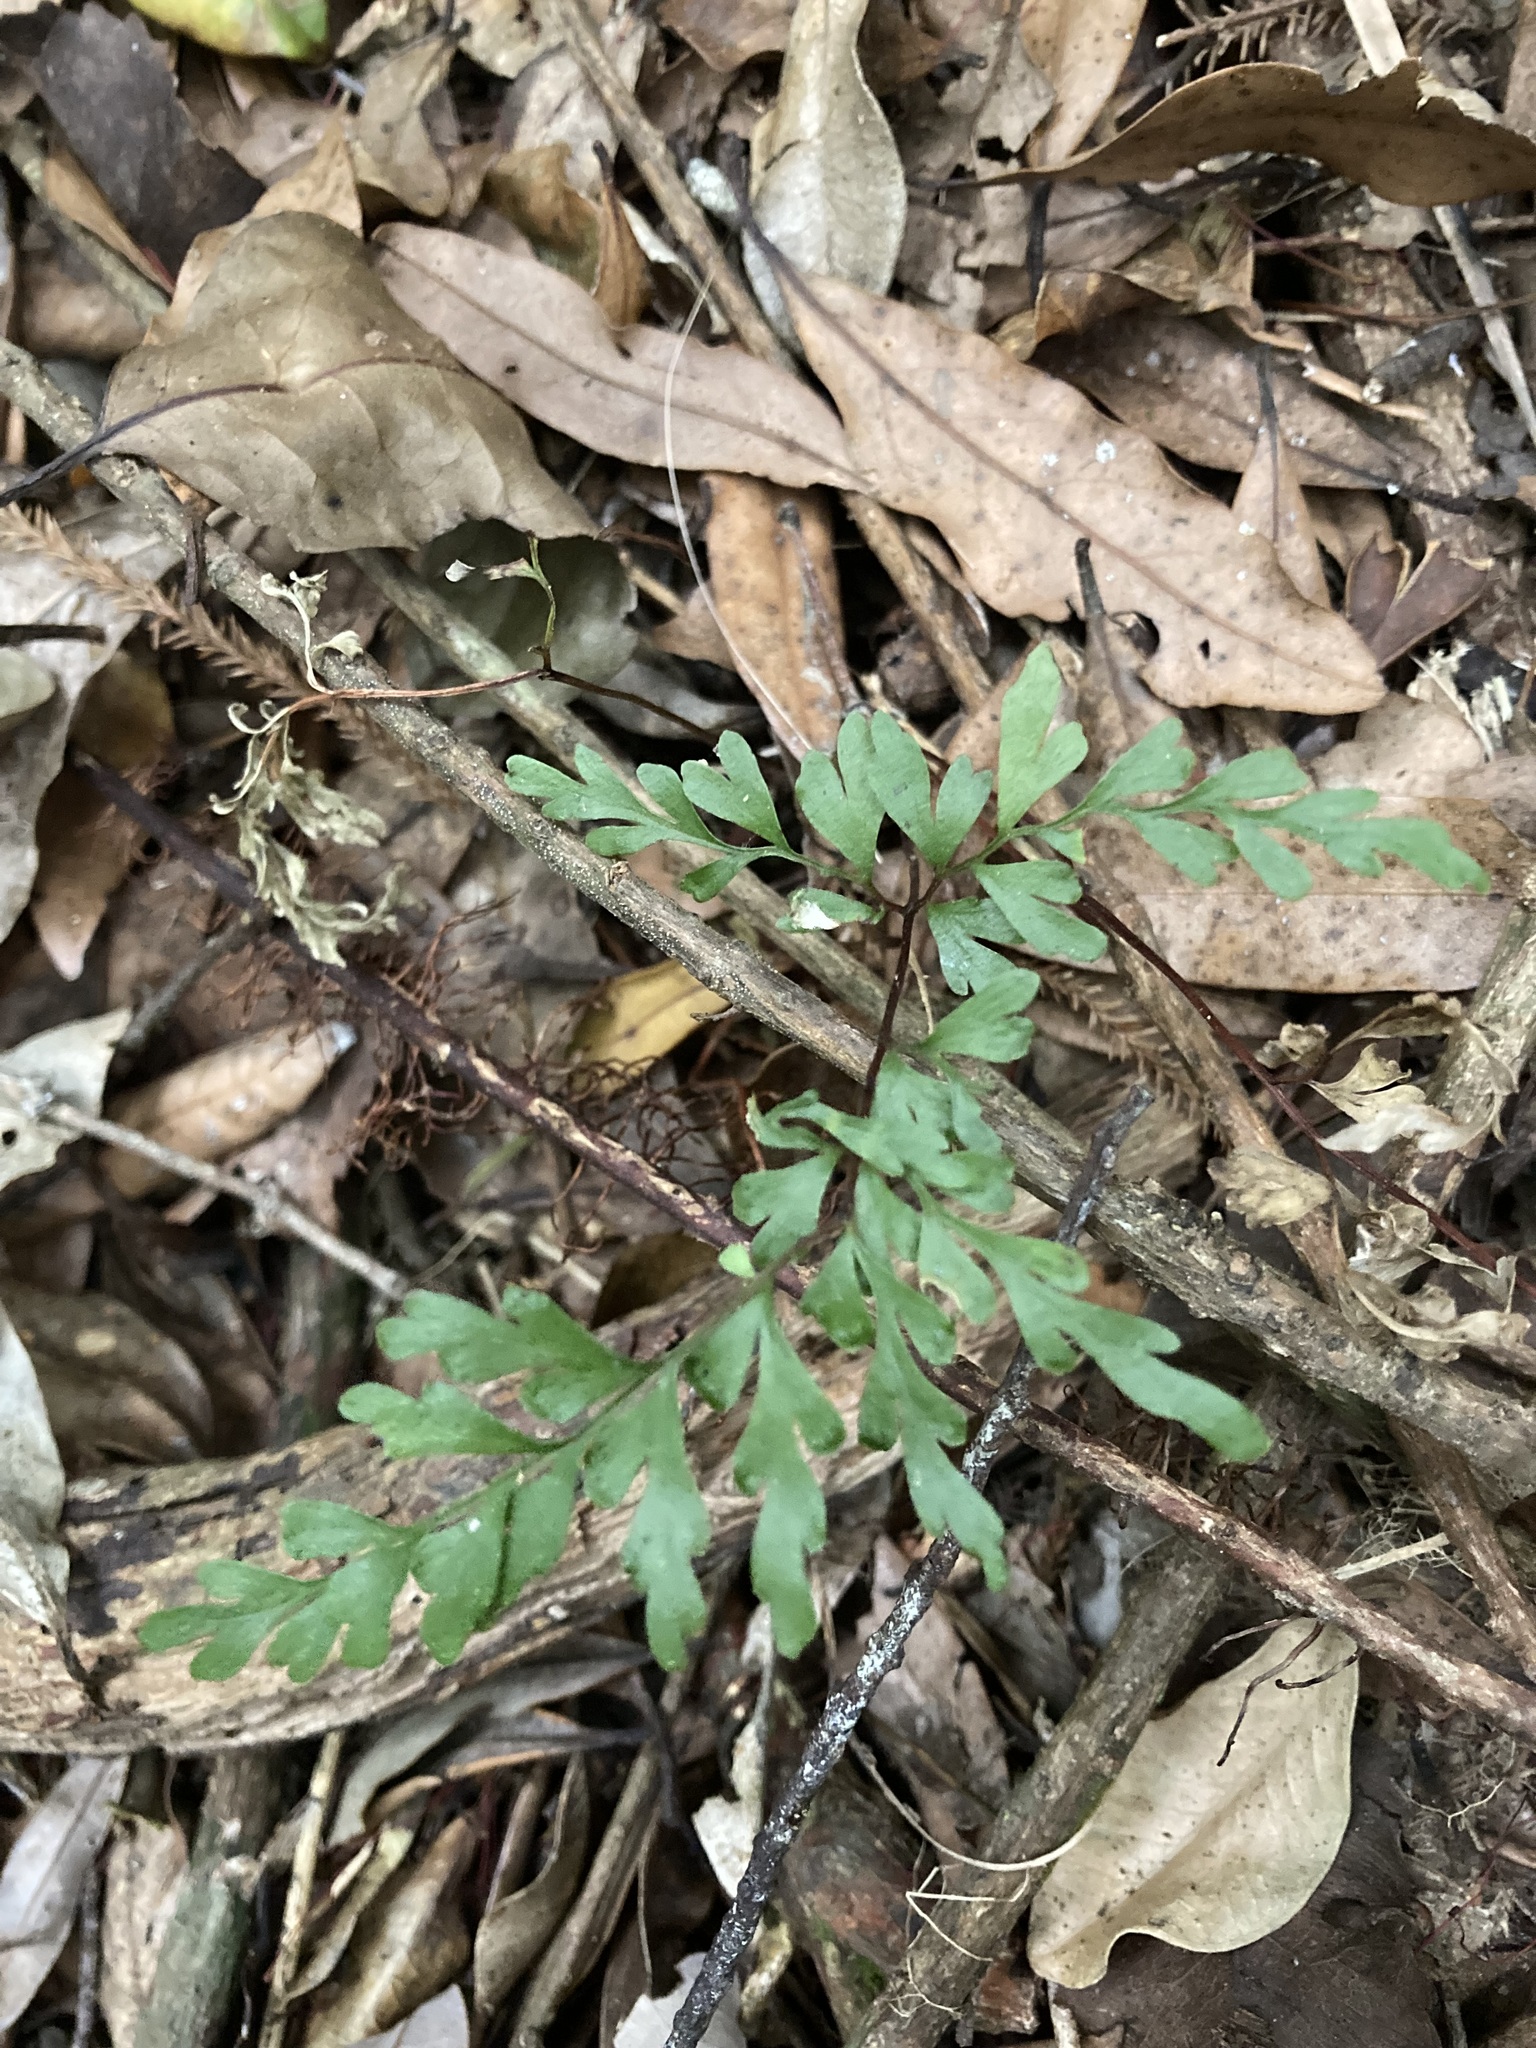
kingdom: Plantae
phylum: Tracheophyta
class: Polypodiopsida
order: Polypodiales
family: Lindsaeaceae
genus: Lindsaea
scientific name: Lindsaea trichomanoides
